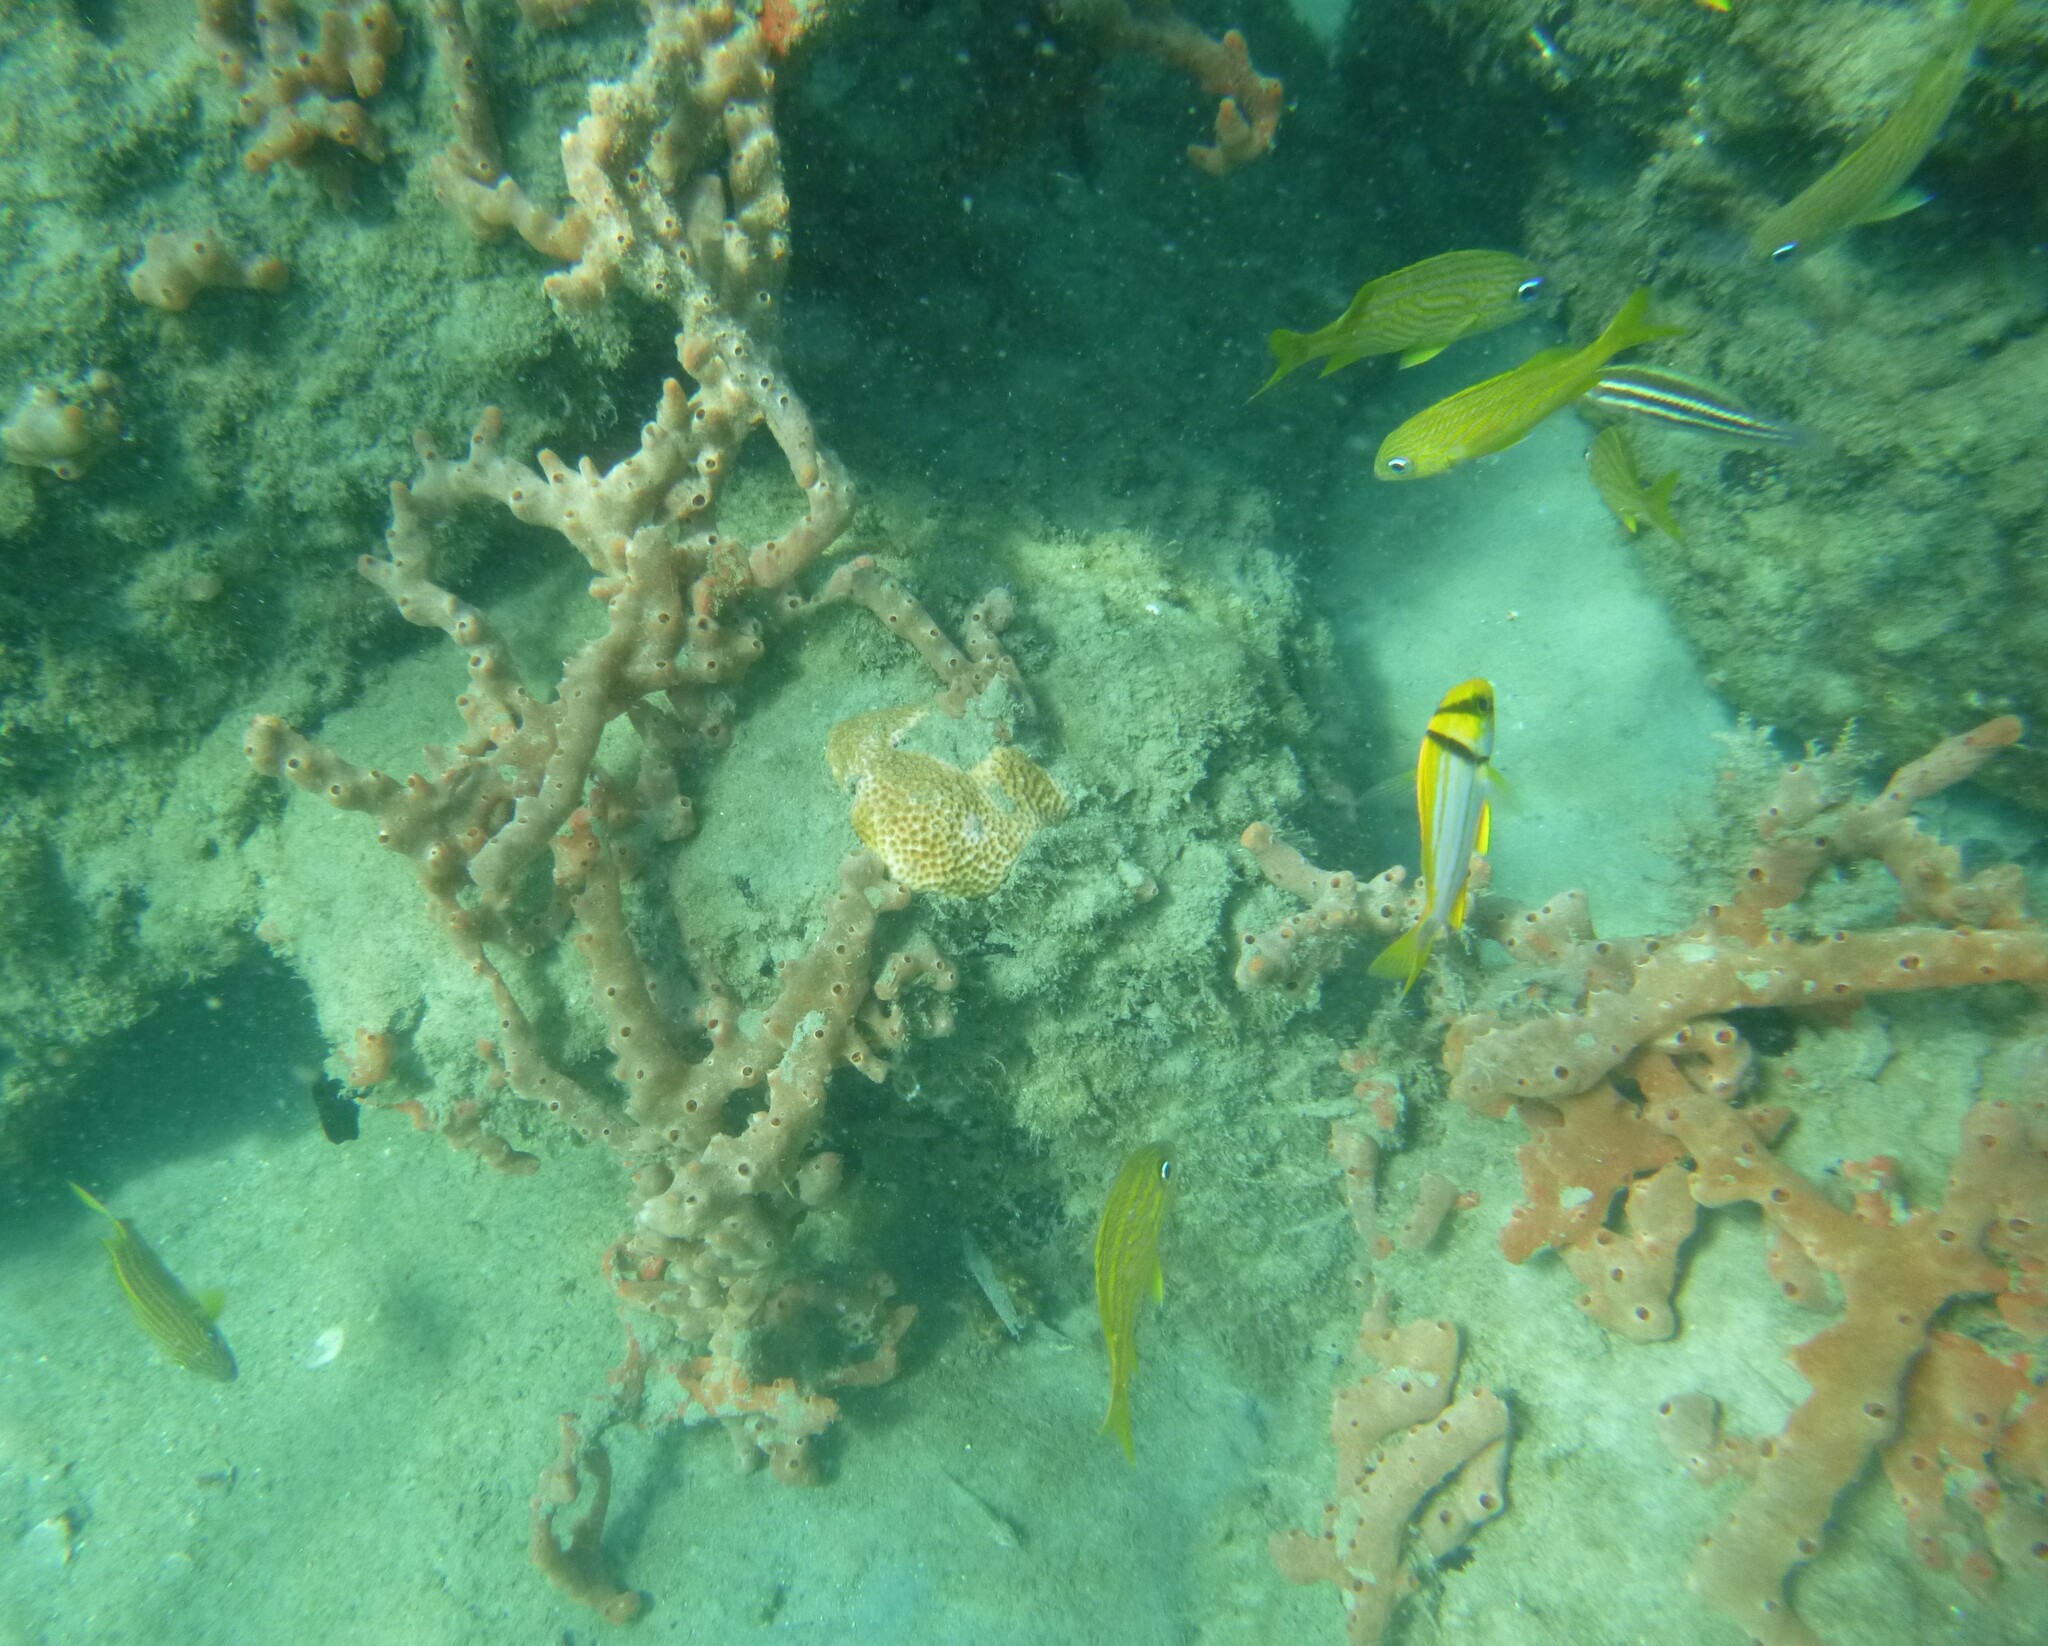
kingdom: Animalia
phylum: Porifera
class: Demospongiae
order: Poecilosclerida
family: Desmacididae
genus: Desmapsamma
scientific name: Desmapsamma anchorata
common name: Lumpy overgrowing sponge
